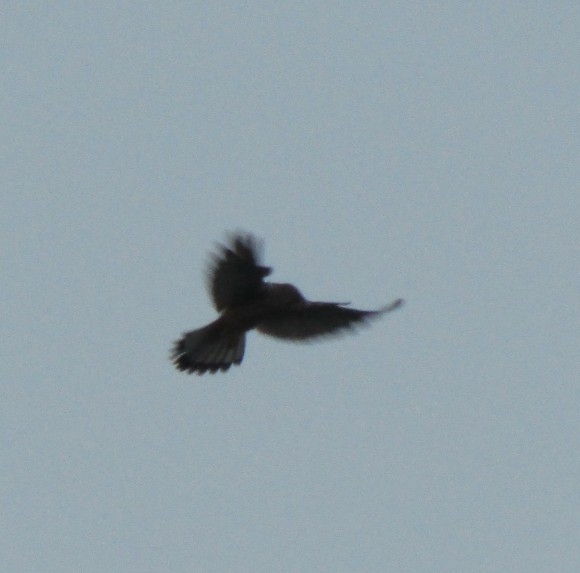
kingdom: Animalia
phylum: Chordata
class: Aves
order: Falconiformes
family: Falconidae
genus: Falco
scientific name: Falco tinnunculus
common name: Common kestrel
